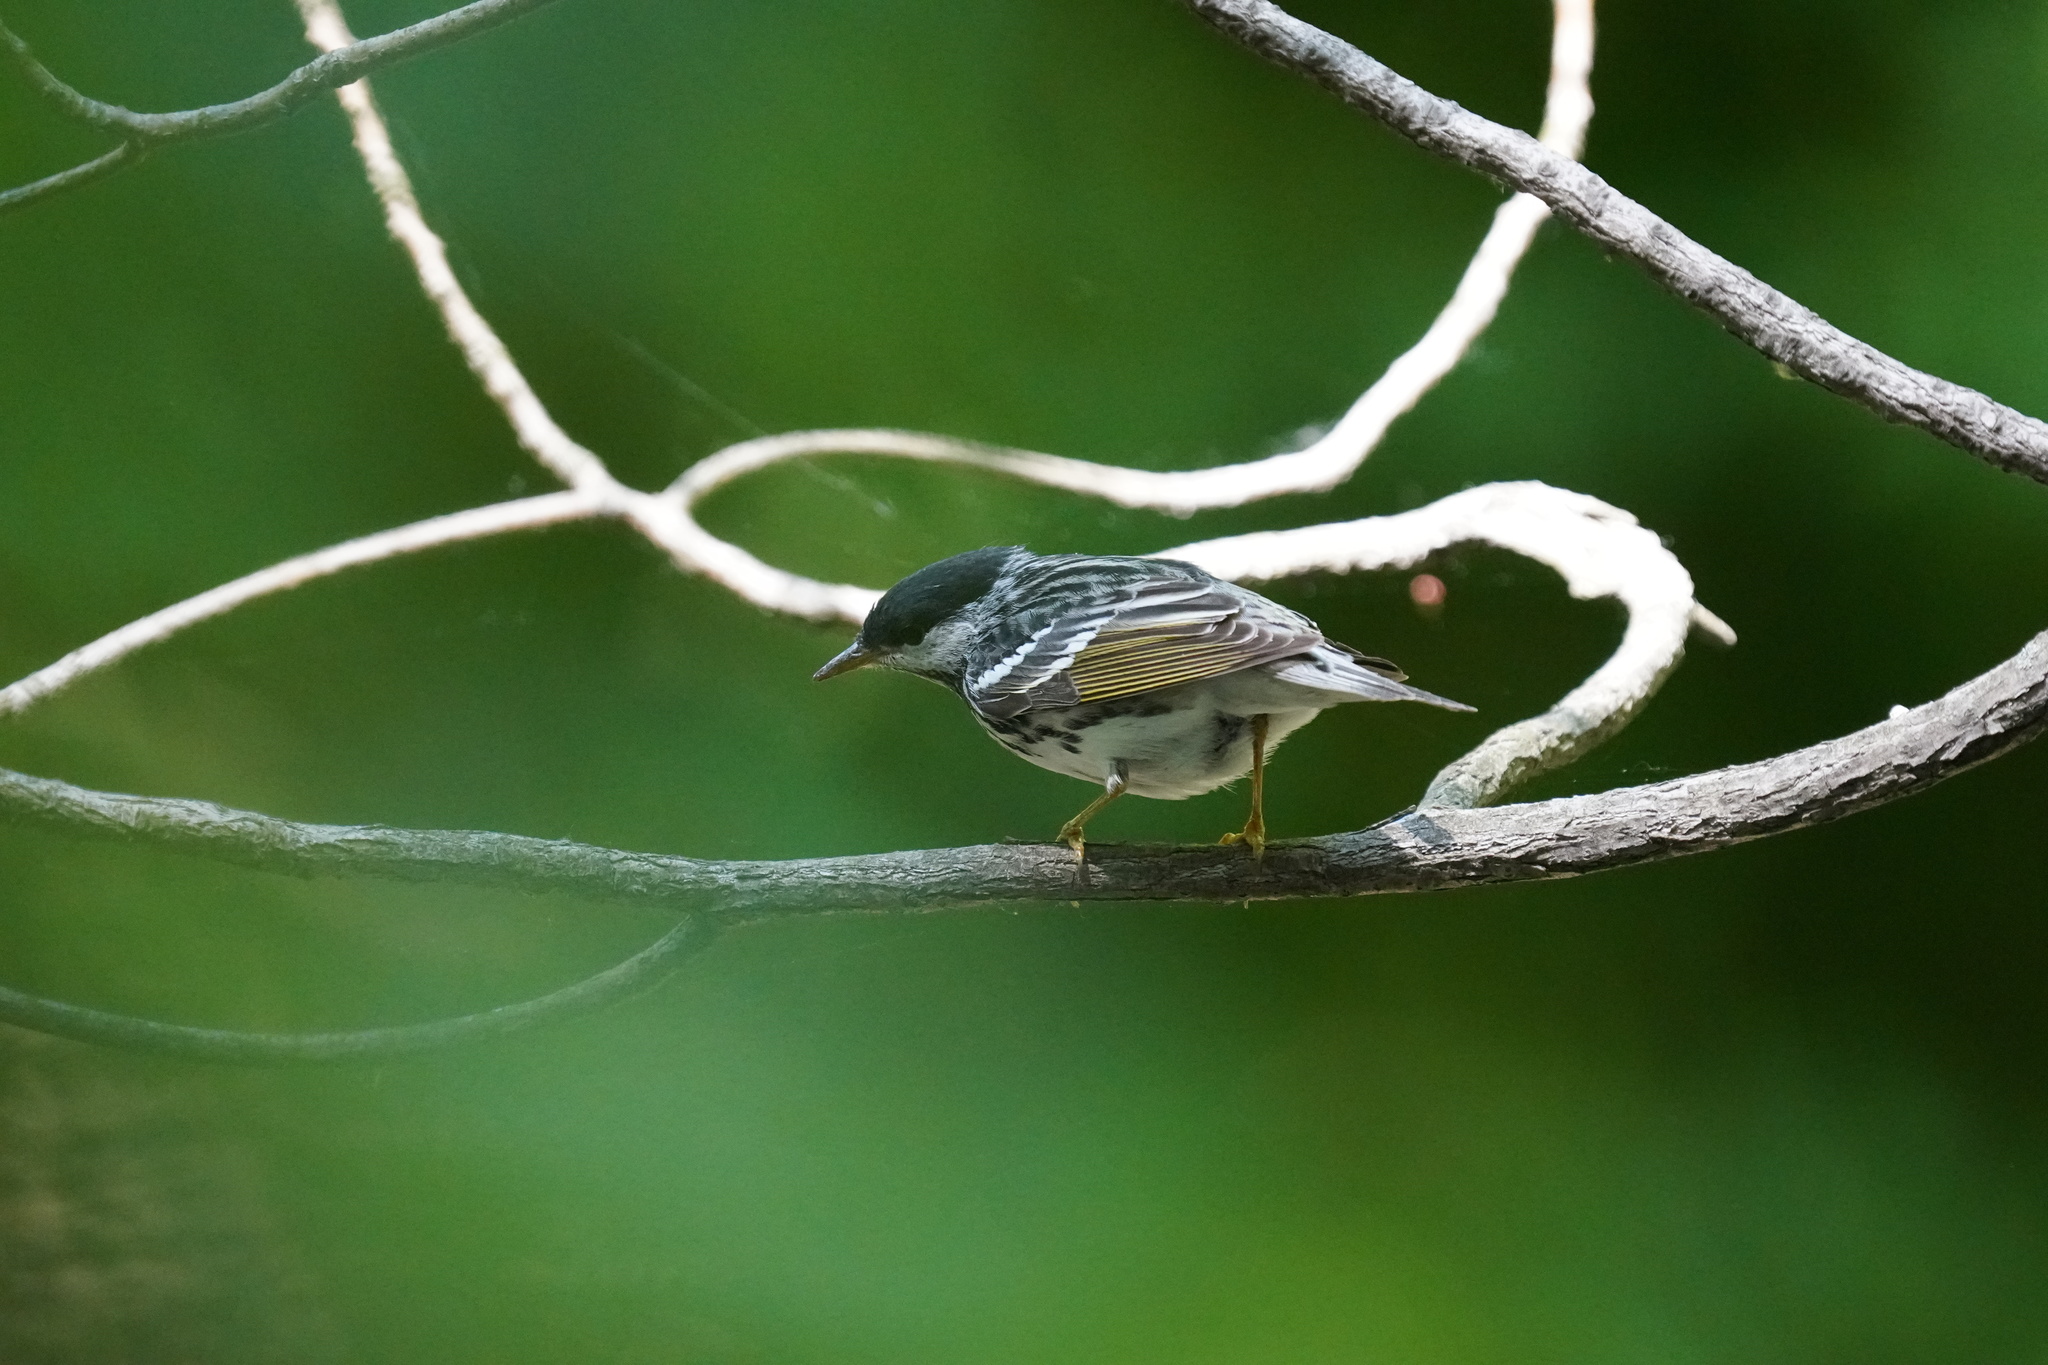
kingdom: Animalia
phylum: Chordata
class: Aves
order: Passeriformes
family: Parulidae
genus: Setophaga
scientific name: Setophaga striata
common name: Blackpoll warbler
